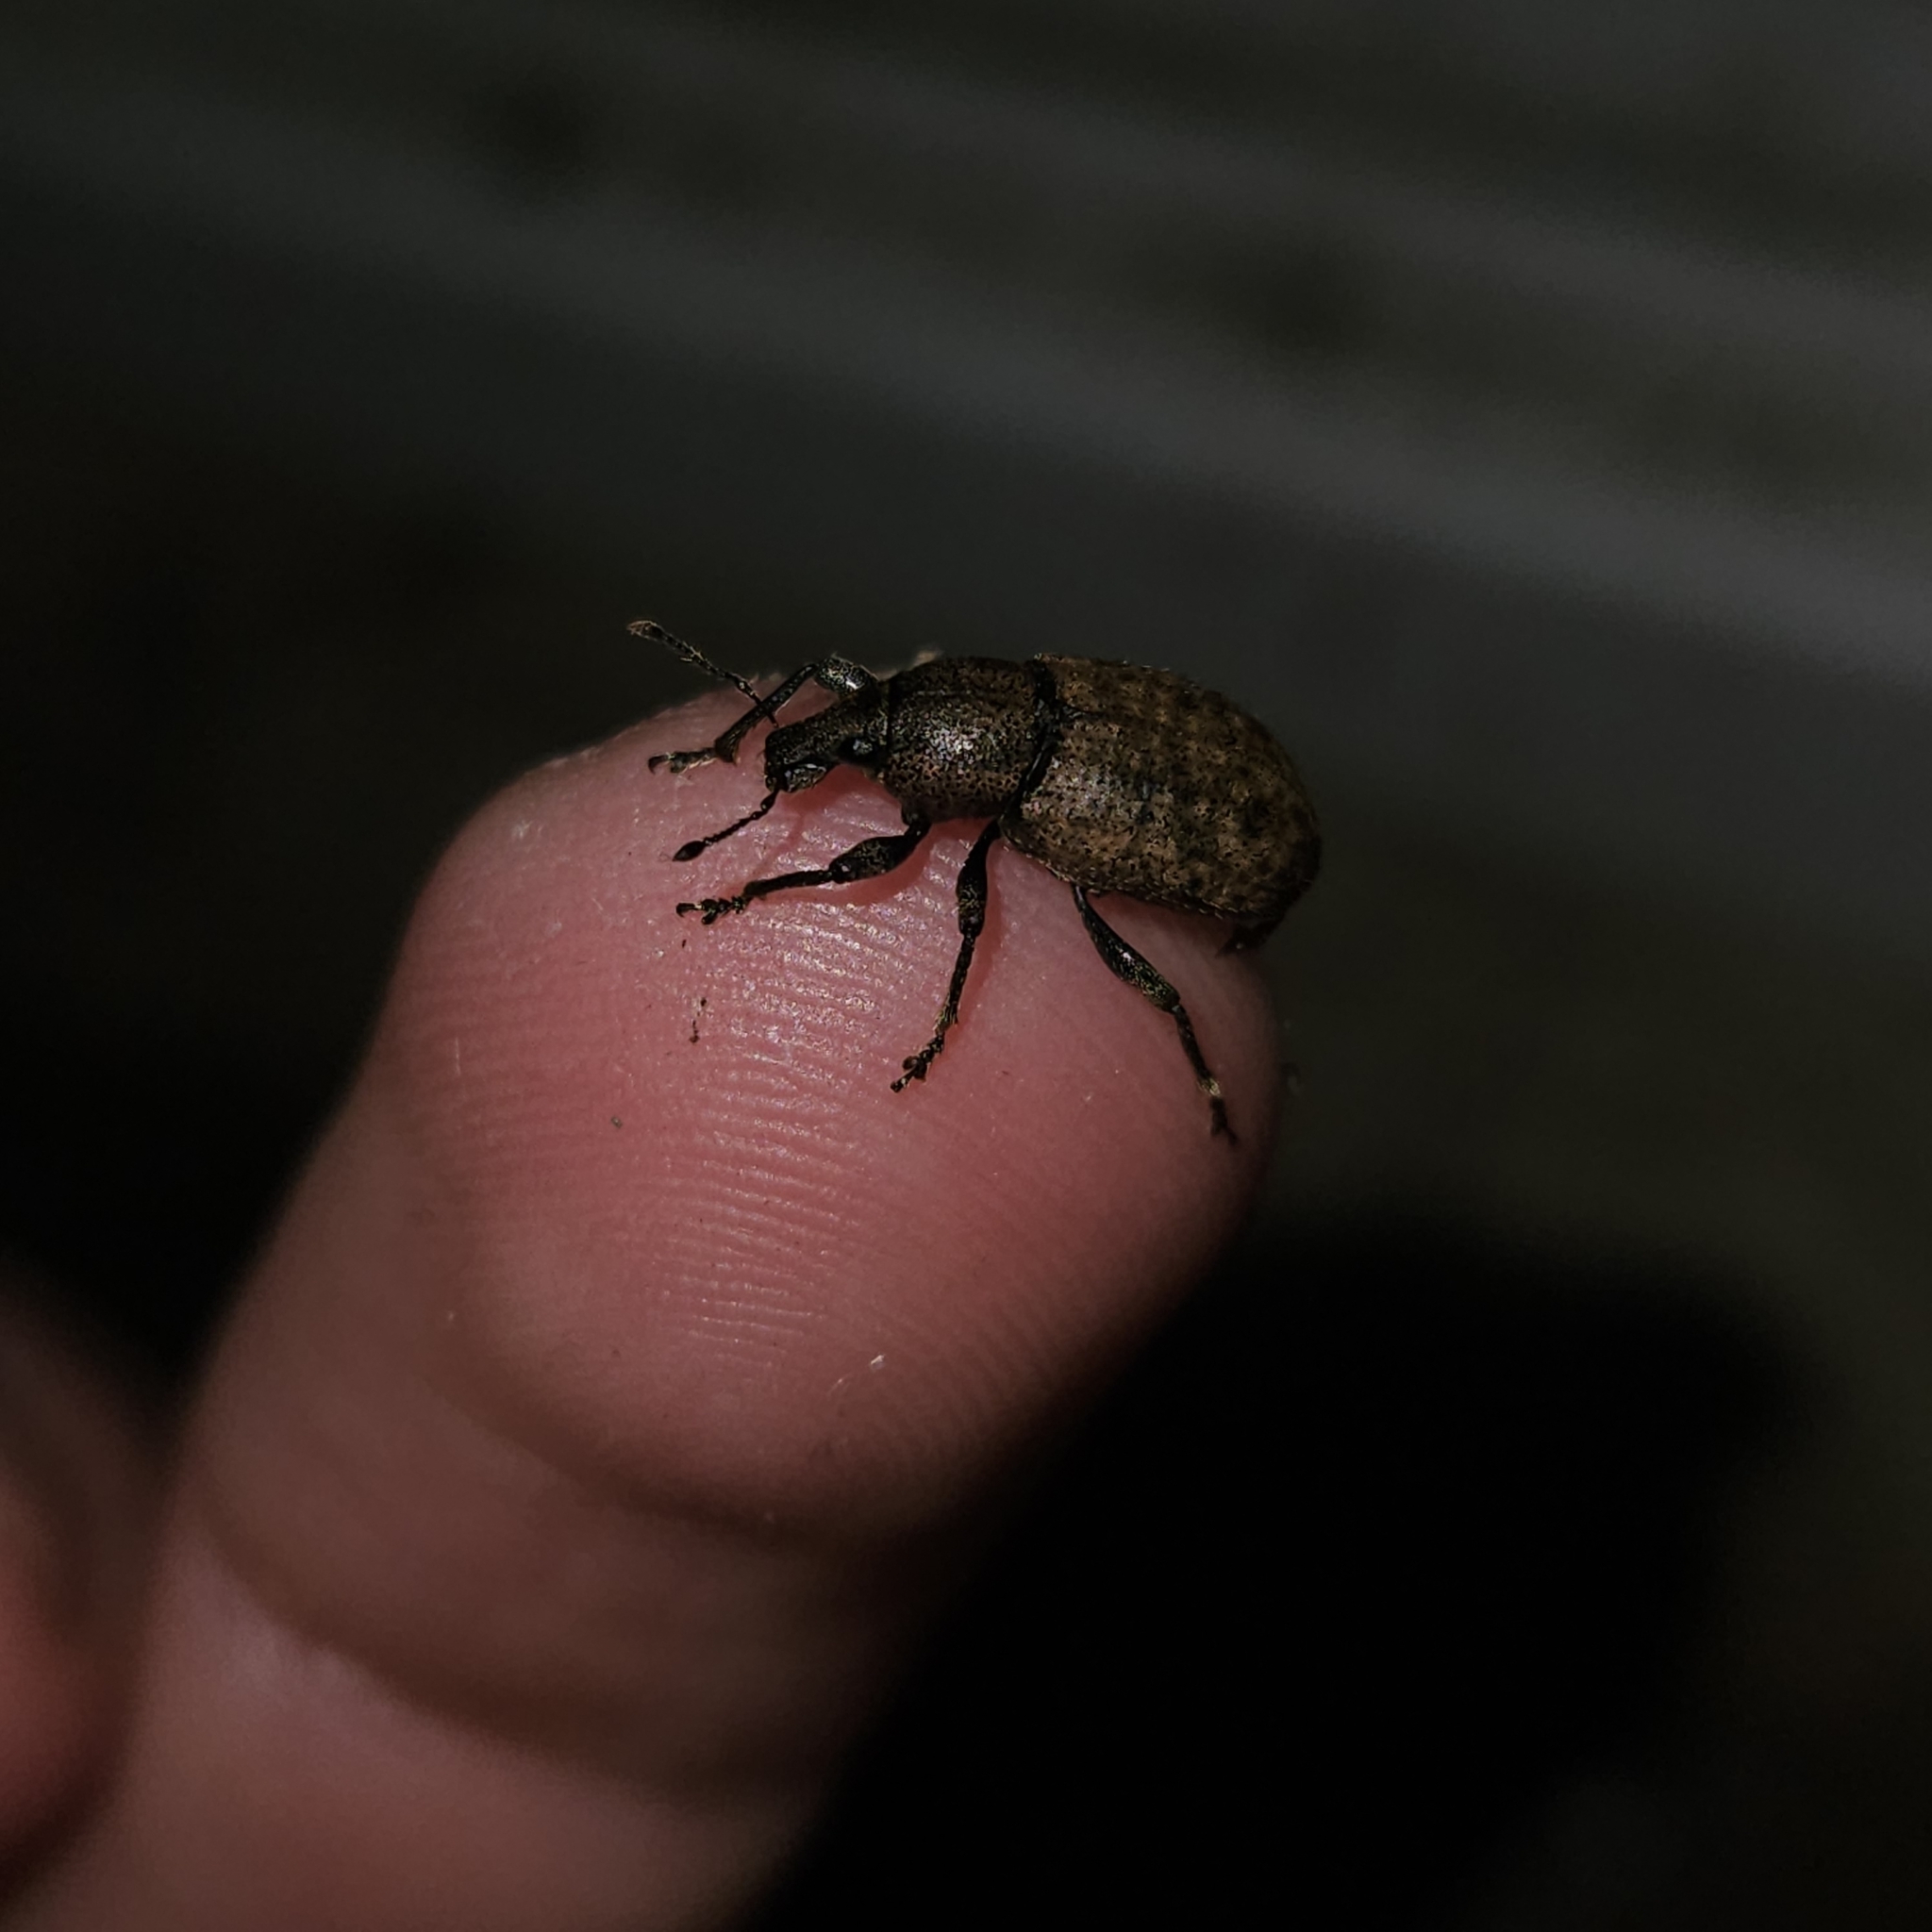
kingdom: Animalia
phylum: Arthropoda
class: Insecta
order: Coleoptera
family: Curculionidae
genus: Barynotus
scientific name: Barynotus obscurus
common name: Weevil
